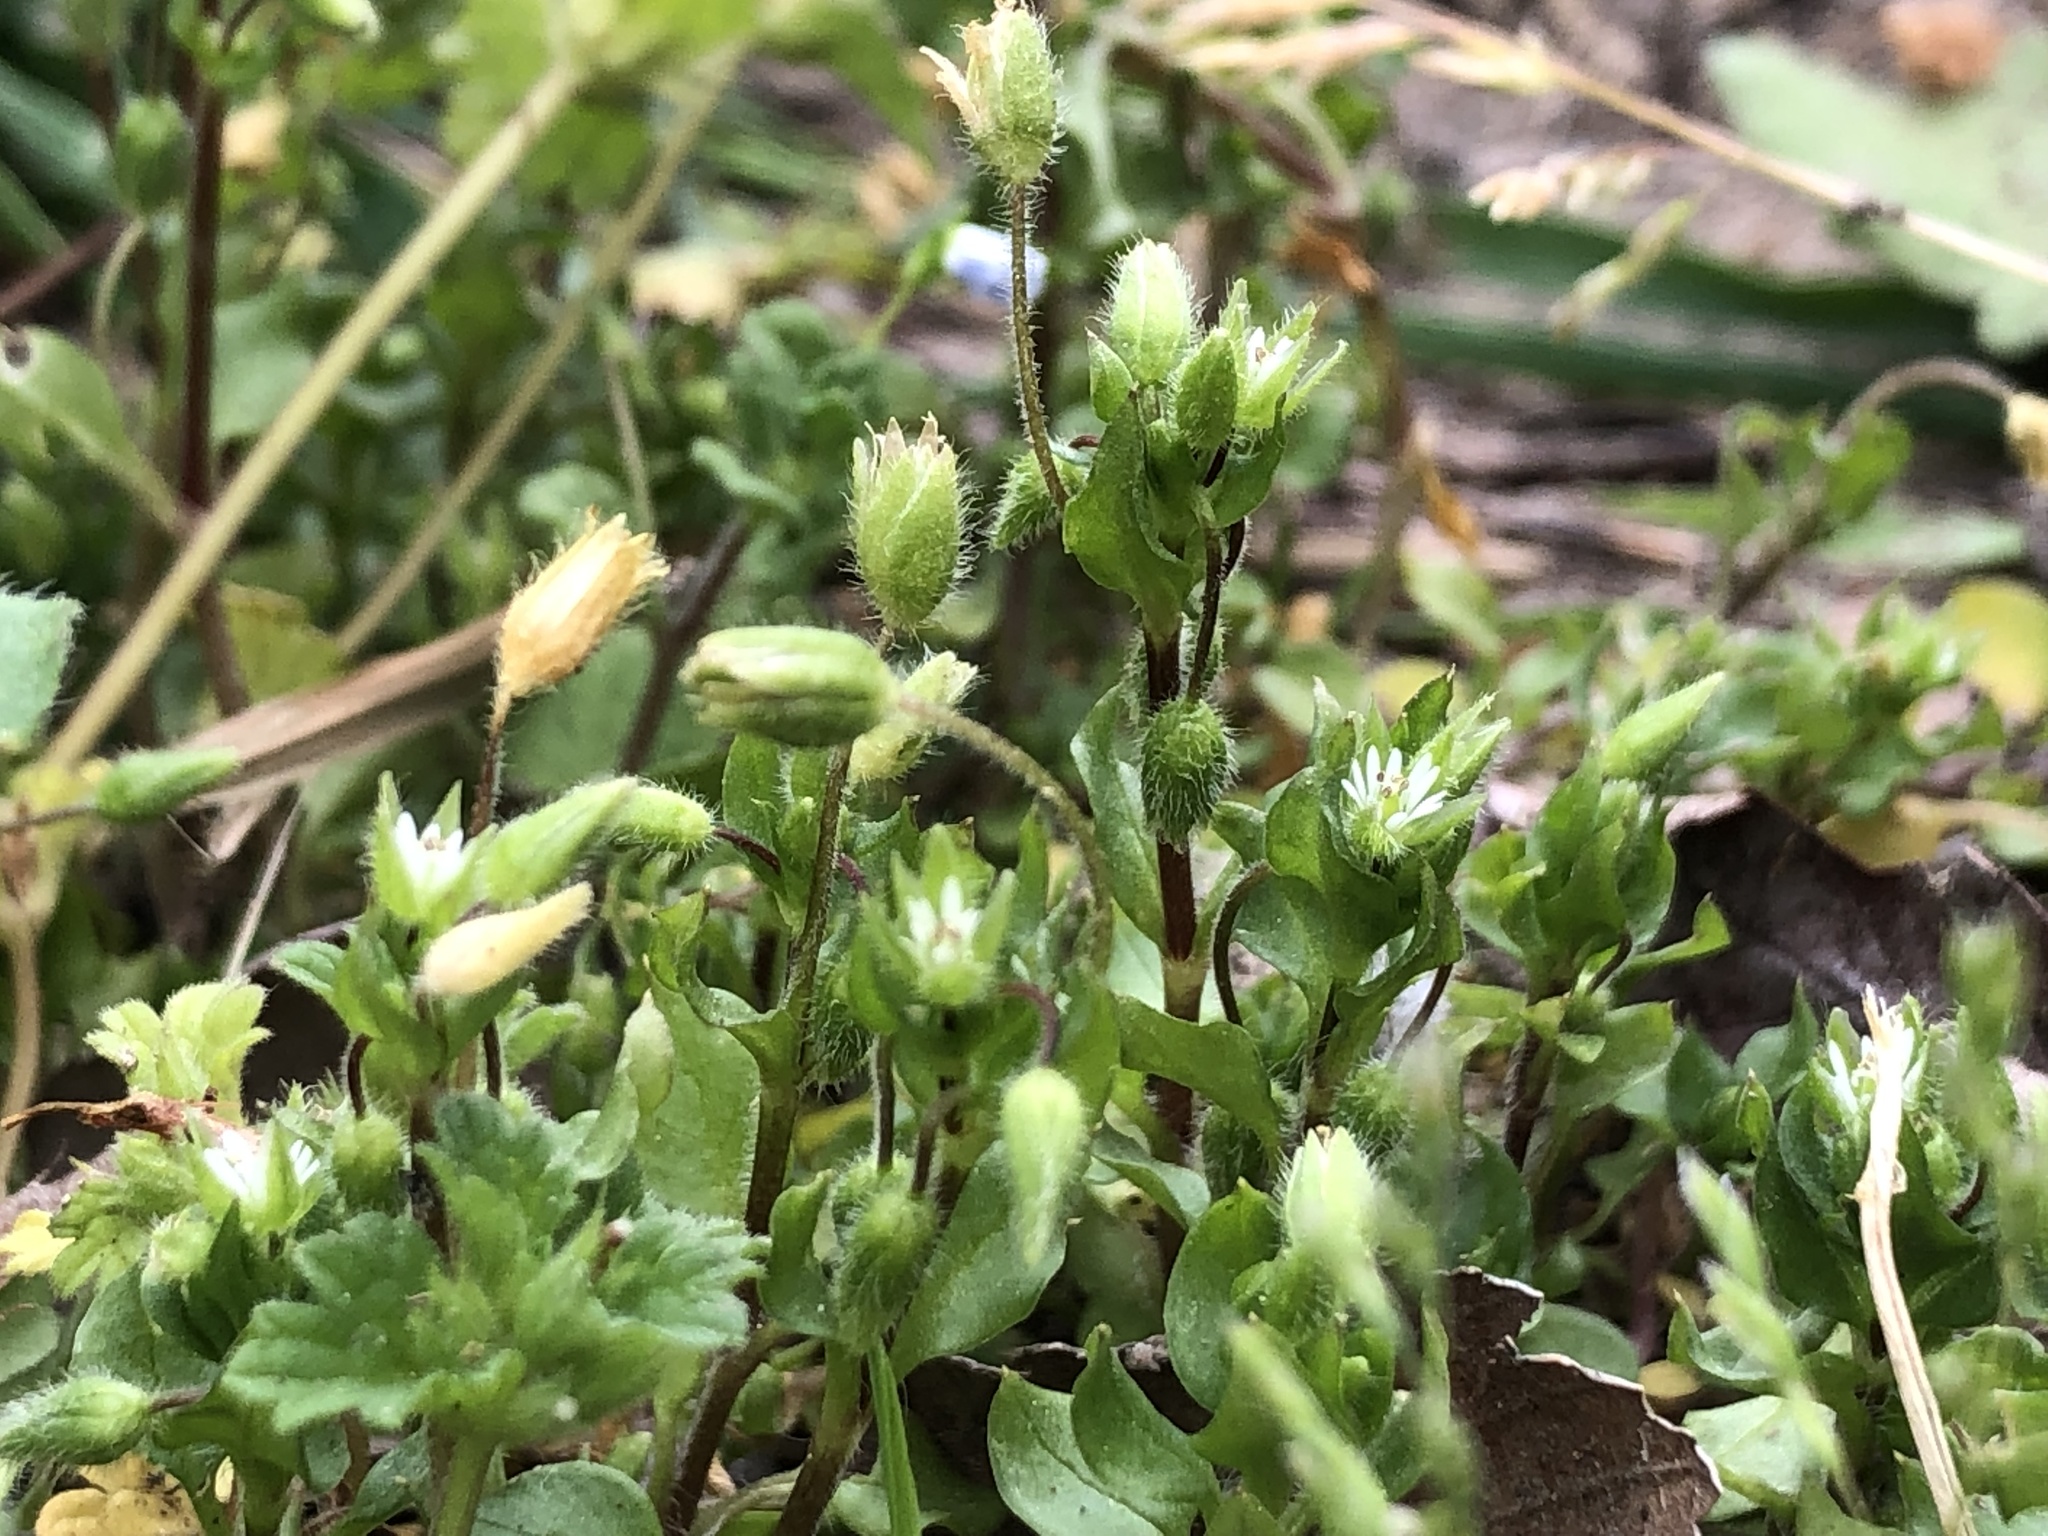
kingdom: Plantae
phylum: Tracheophyta
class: Magnoliopsida
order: Caryophyllales
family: Caryophyllaceae
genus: Stellaria
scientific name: Stellaria media
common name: Common chickweed
